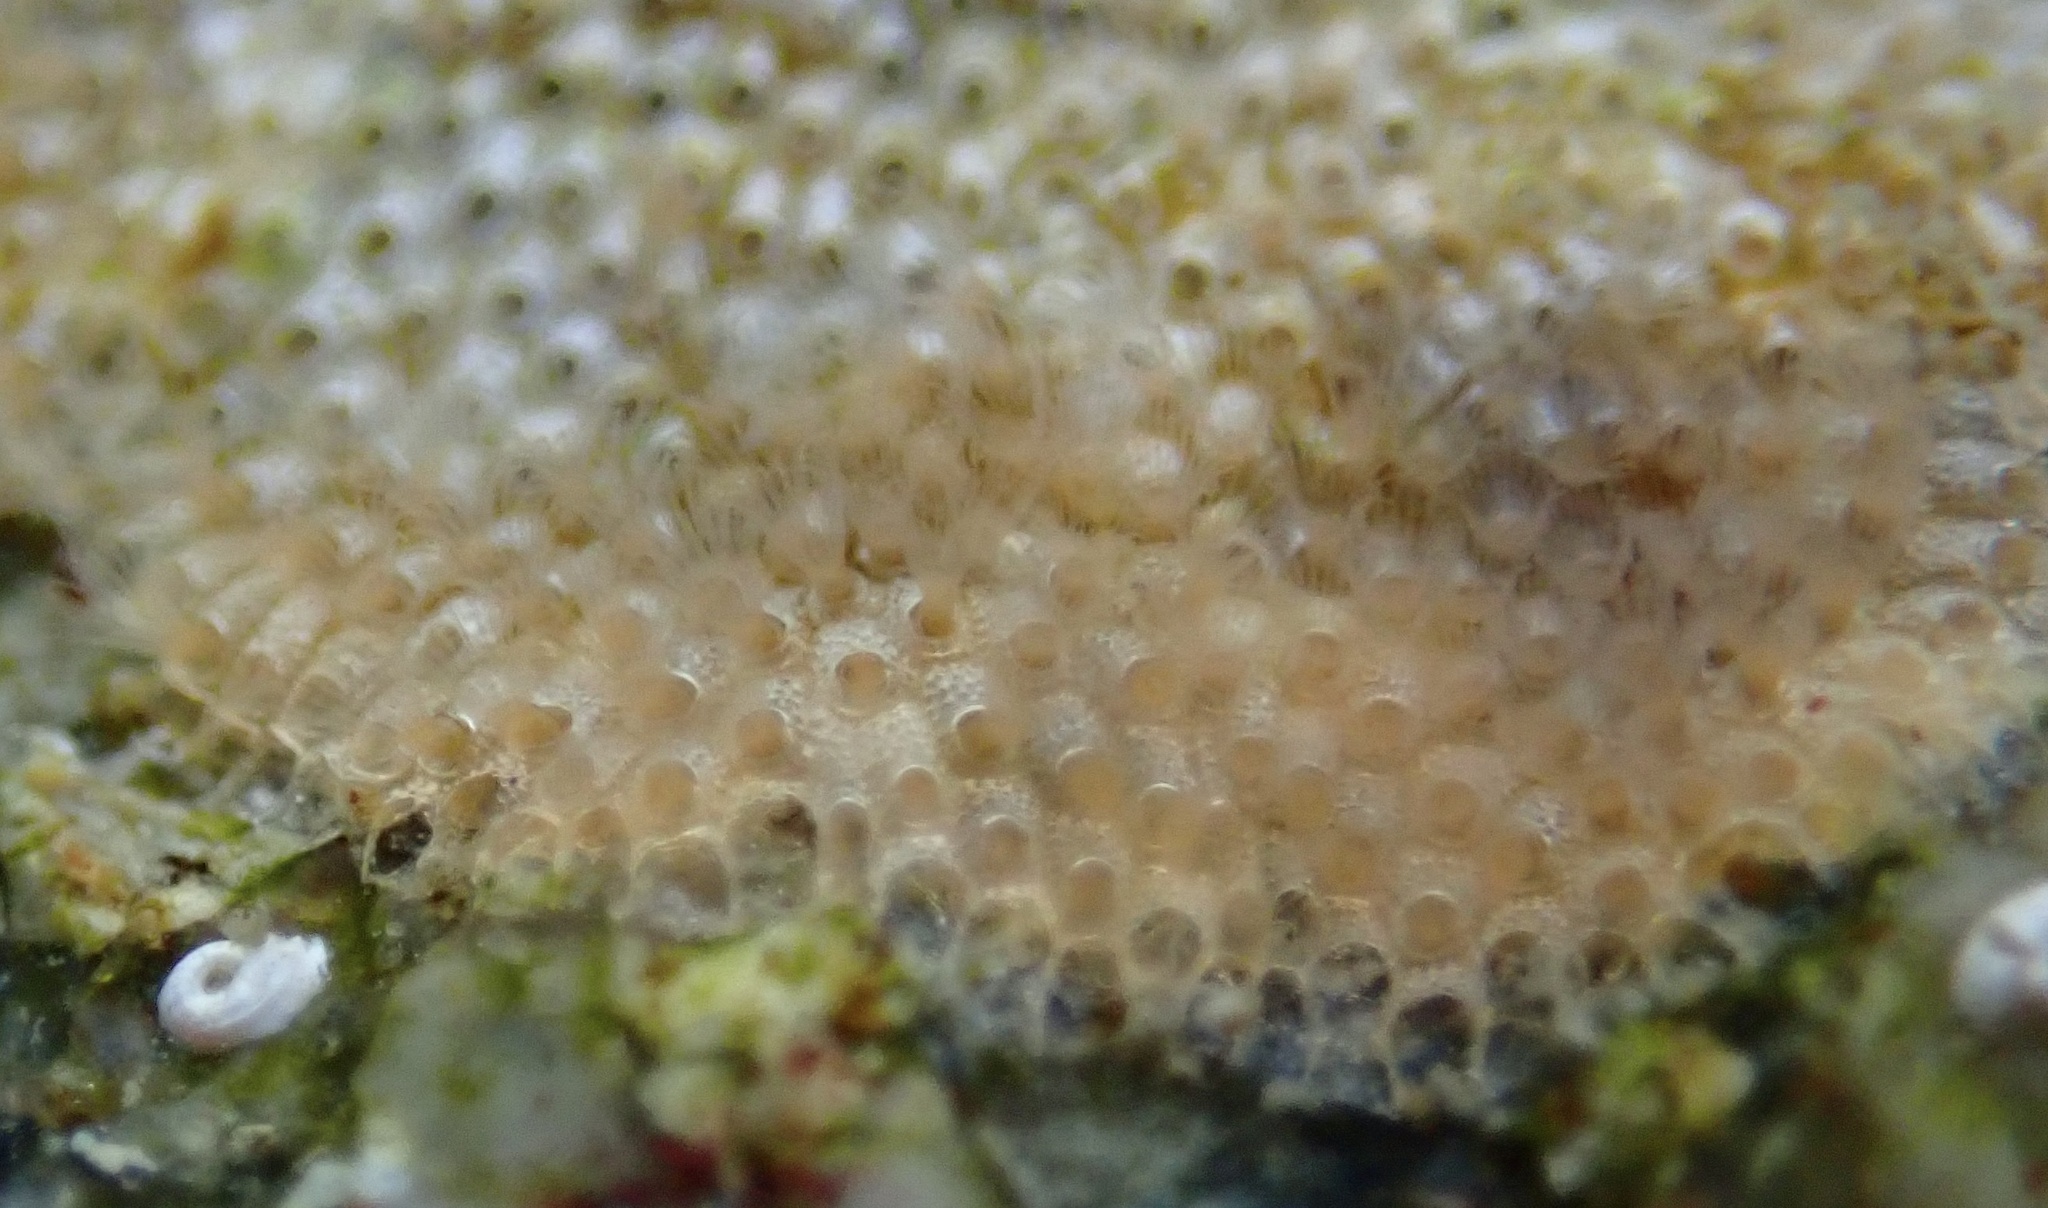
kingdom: Animalia
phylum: Bryozoa
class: Gymnolaemata
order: Cheilostomatida
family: Cryptosulidae
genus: Cryptosula
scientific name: Cryptosula pallasiana
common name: Red crust
